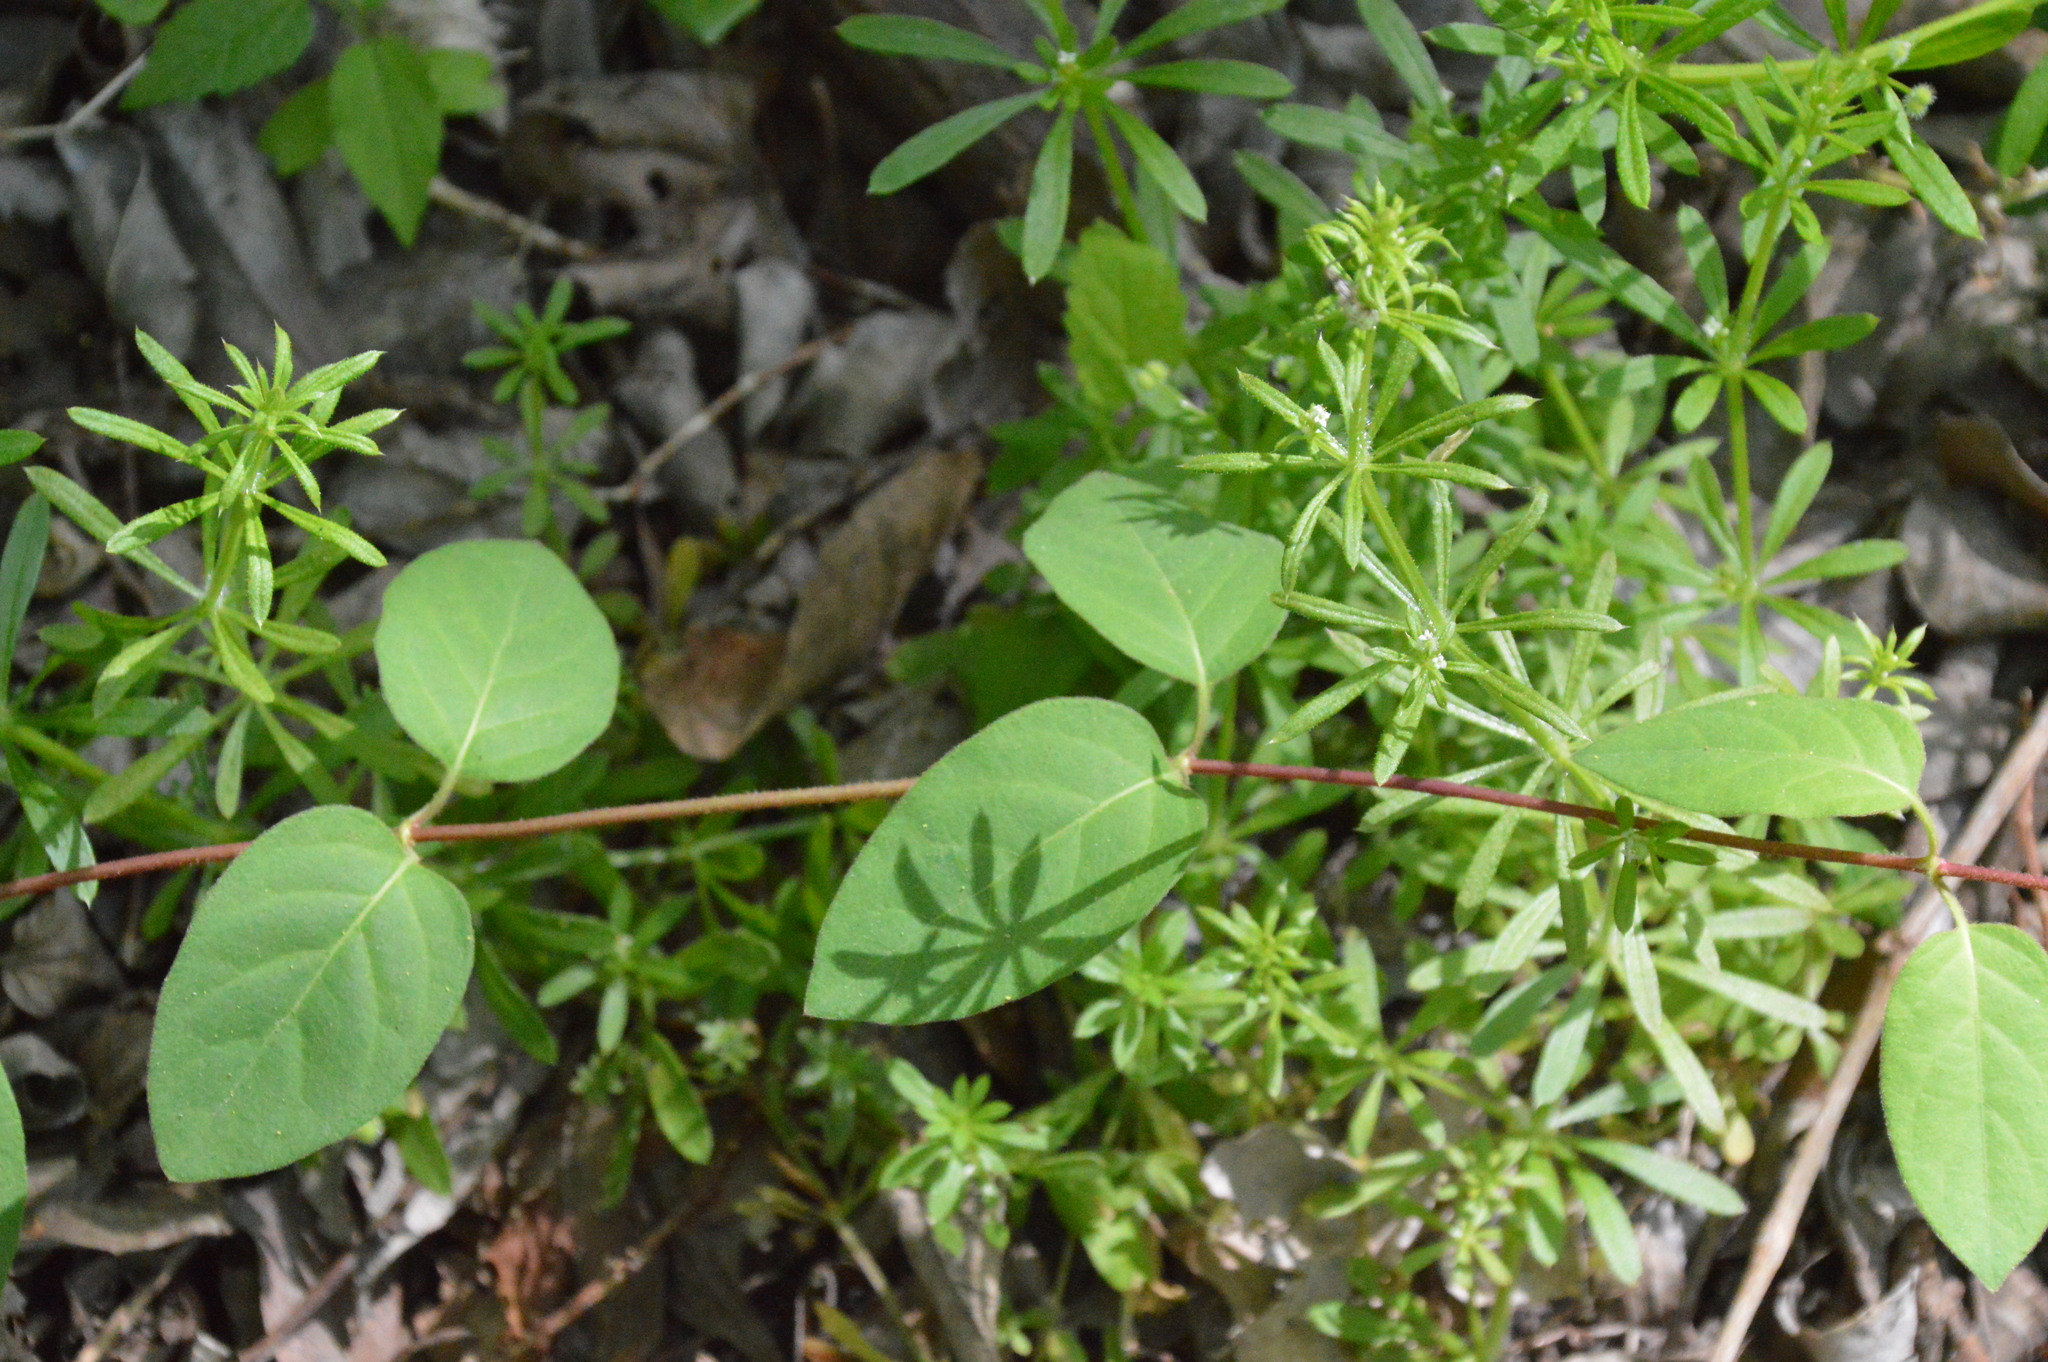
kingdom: Plantae
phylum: Tracheophyta
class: Magnoliopsida
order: Dipsacales
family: Caprifoliaceae
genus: Lonicera
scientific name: Lonicera japonica
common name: Japanese honeysuckle
